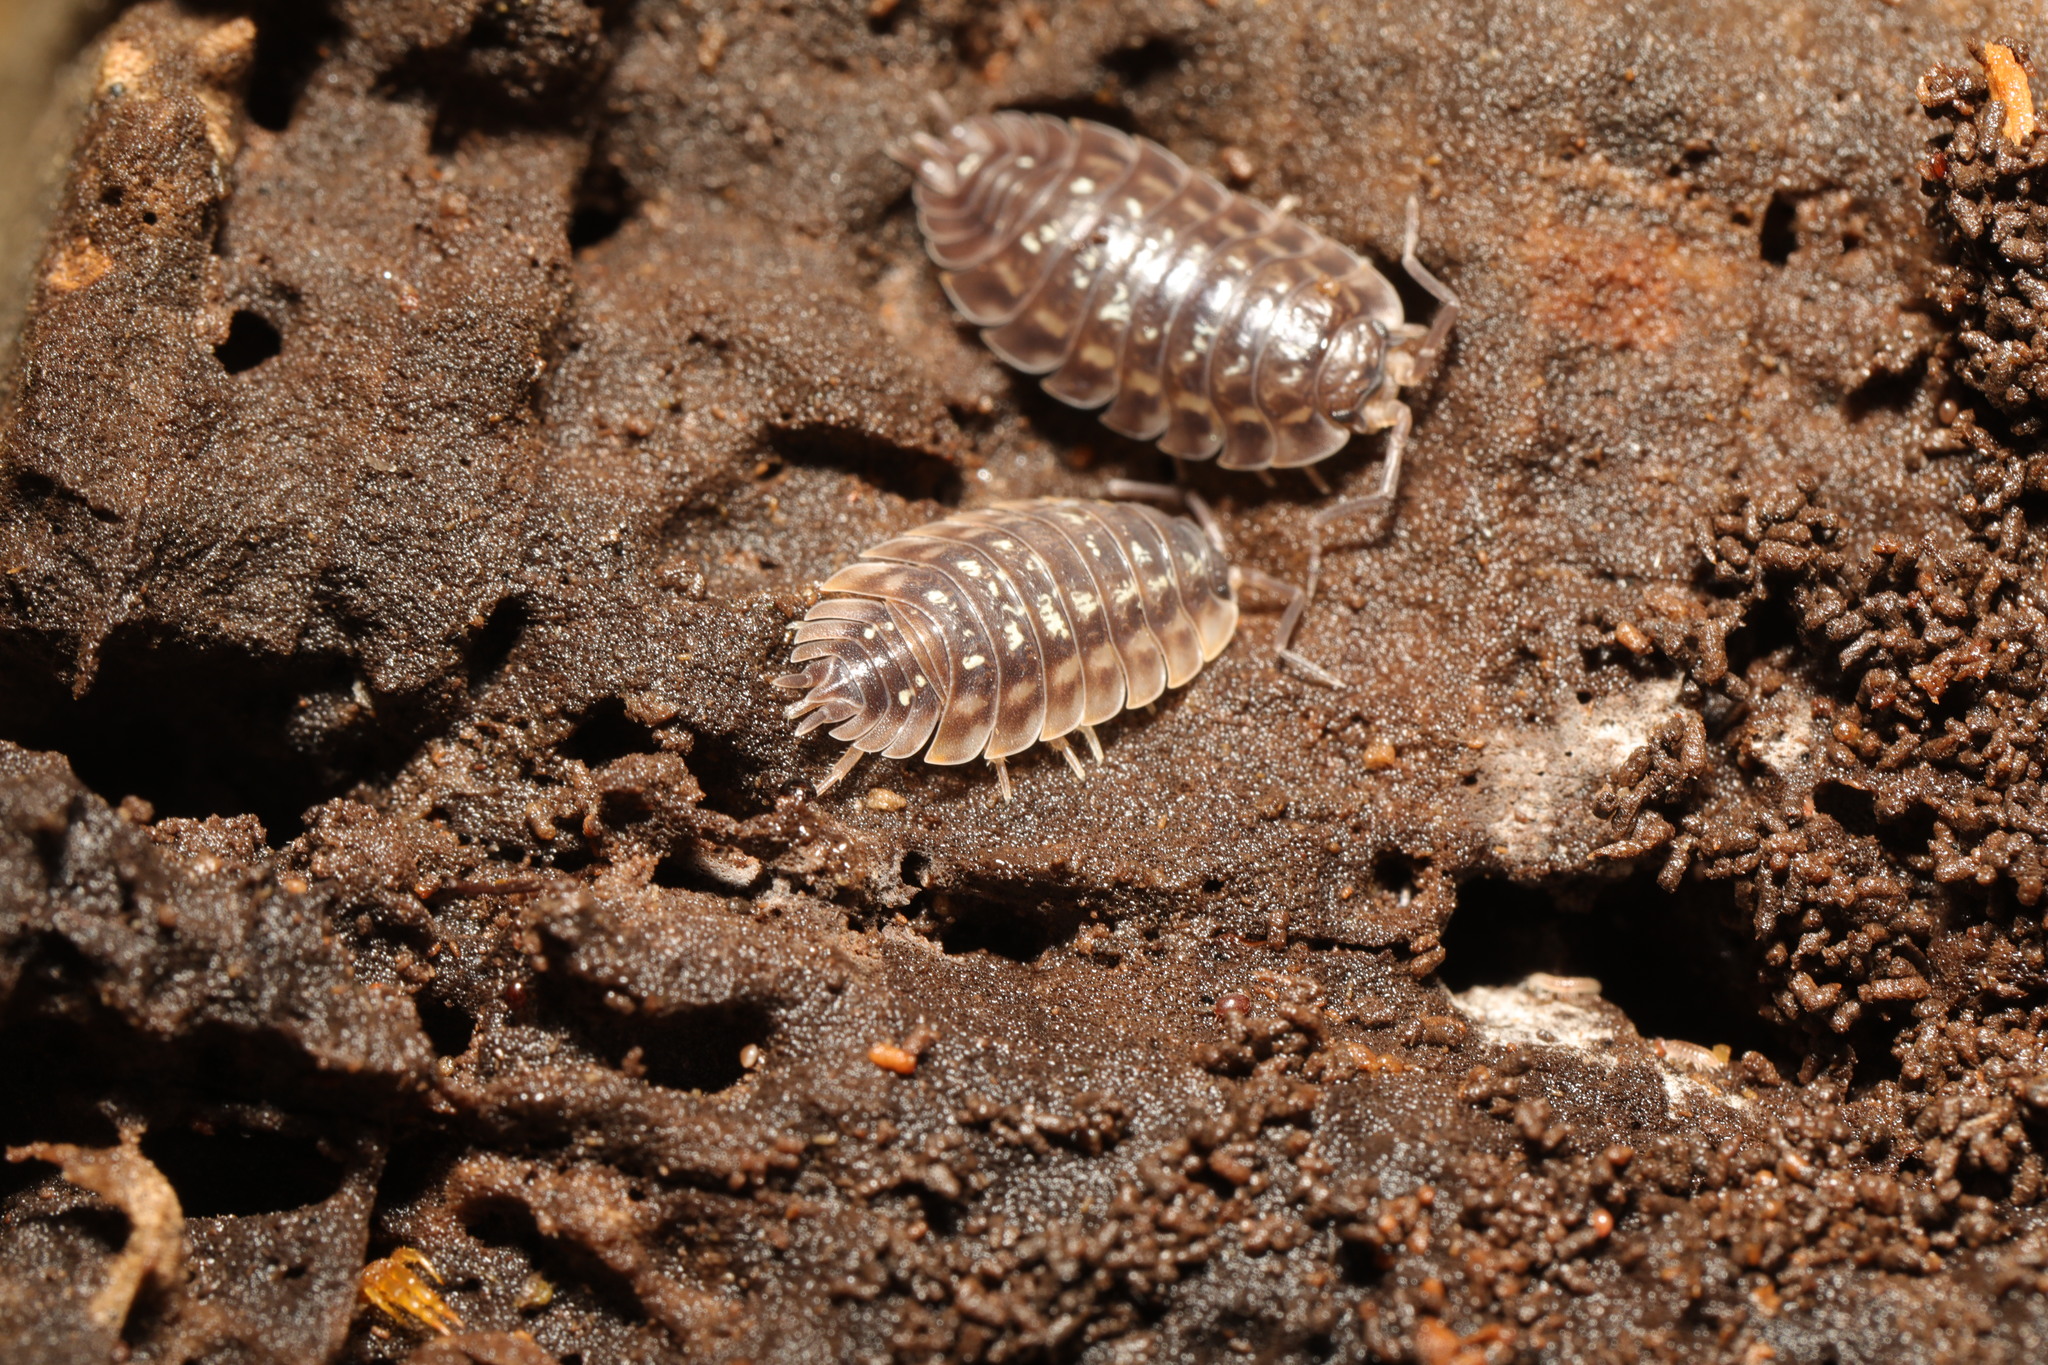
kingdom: Animalia
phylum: Arthropoda
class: Malacostraca
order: Isopoda
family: Oniscidae
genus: Oniscus
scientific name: Oniscus asellus
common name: Common shiny woodlouse
